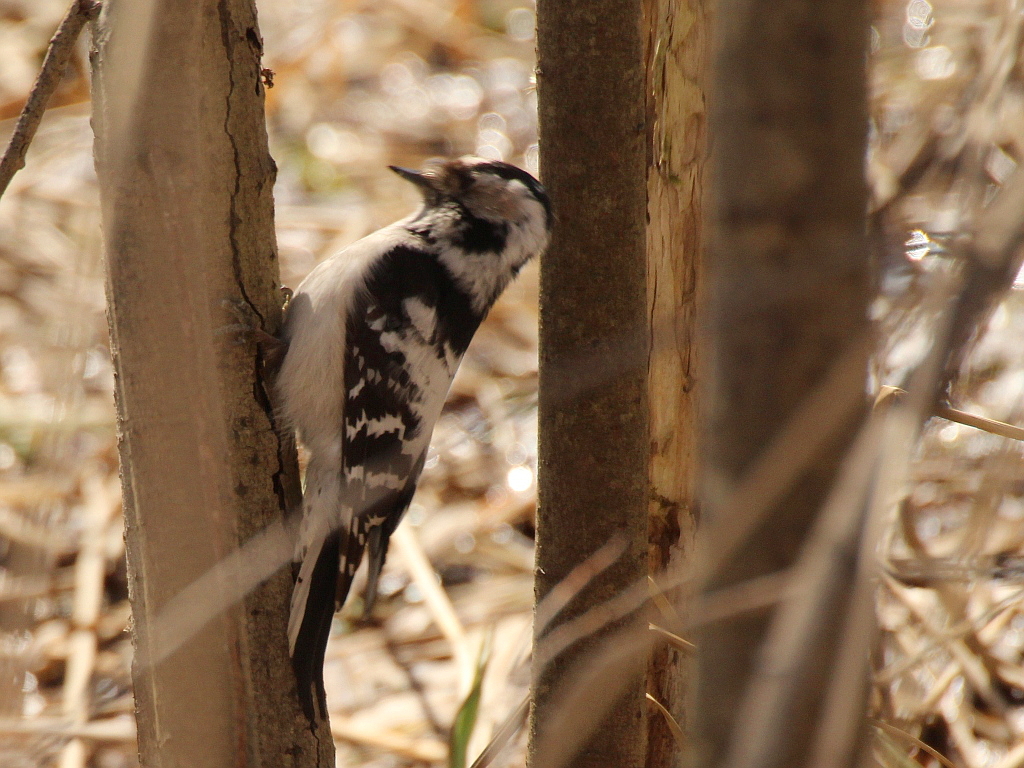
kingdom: Animalia
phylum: Chordata
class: Aves
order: Piciformes
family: Picidae
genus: Dryobates
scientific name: Dryobates minor
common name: Lesser spotted woodpecker
